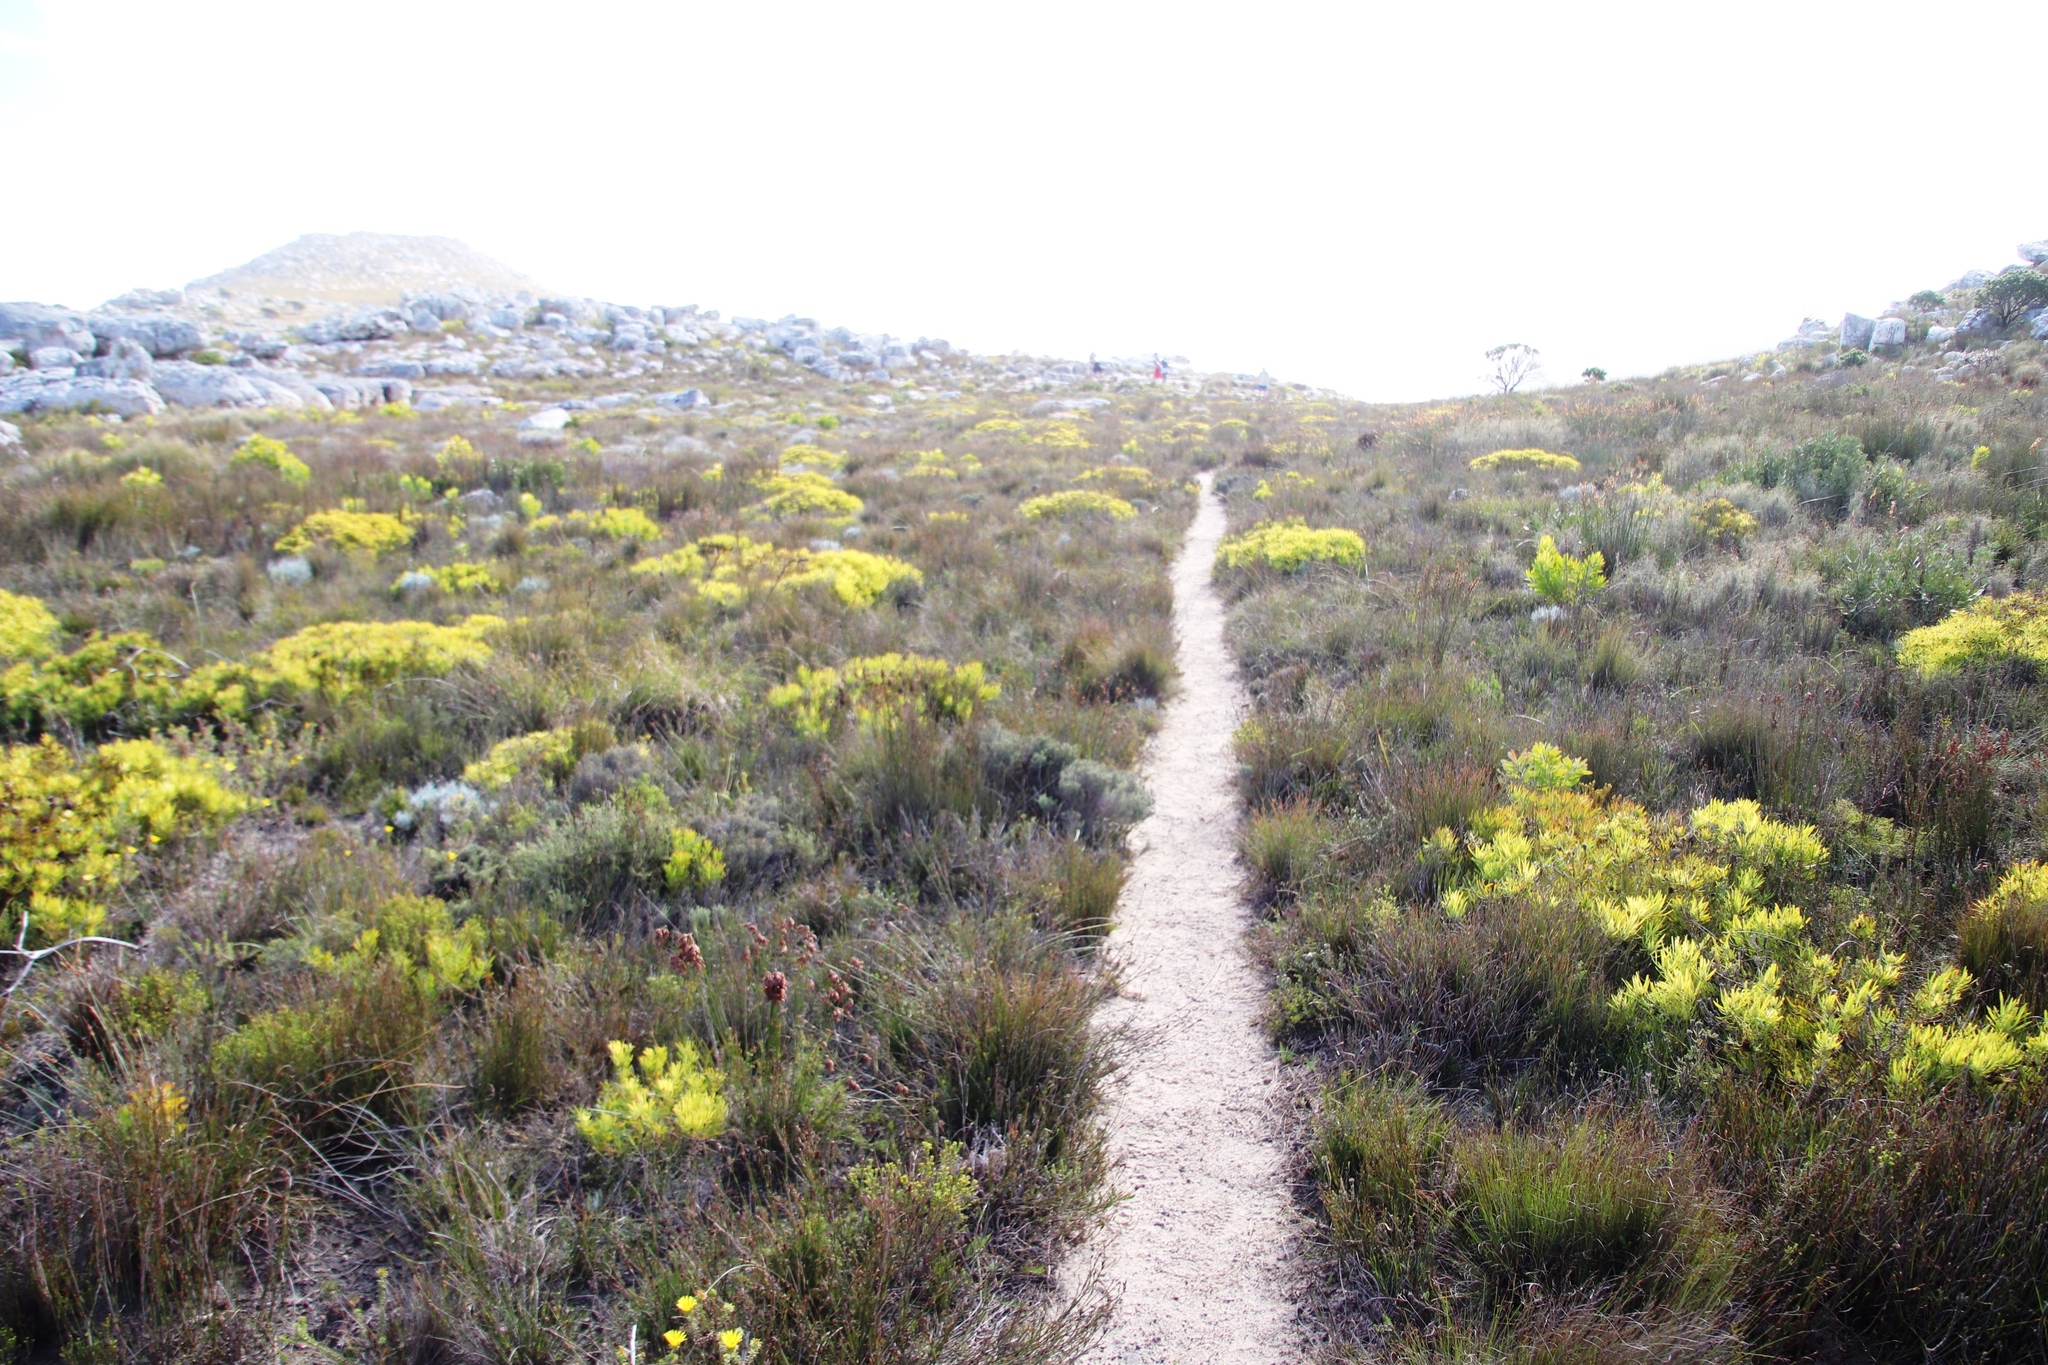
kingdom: Plantae
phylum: Tracheophyta
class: Magnoliopsida
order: Proteales
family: Proteaceae
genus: Leucadendron
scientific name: Leucadendron salignum
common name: Common sunshine conebush
